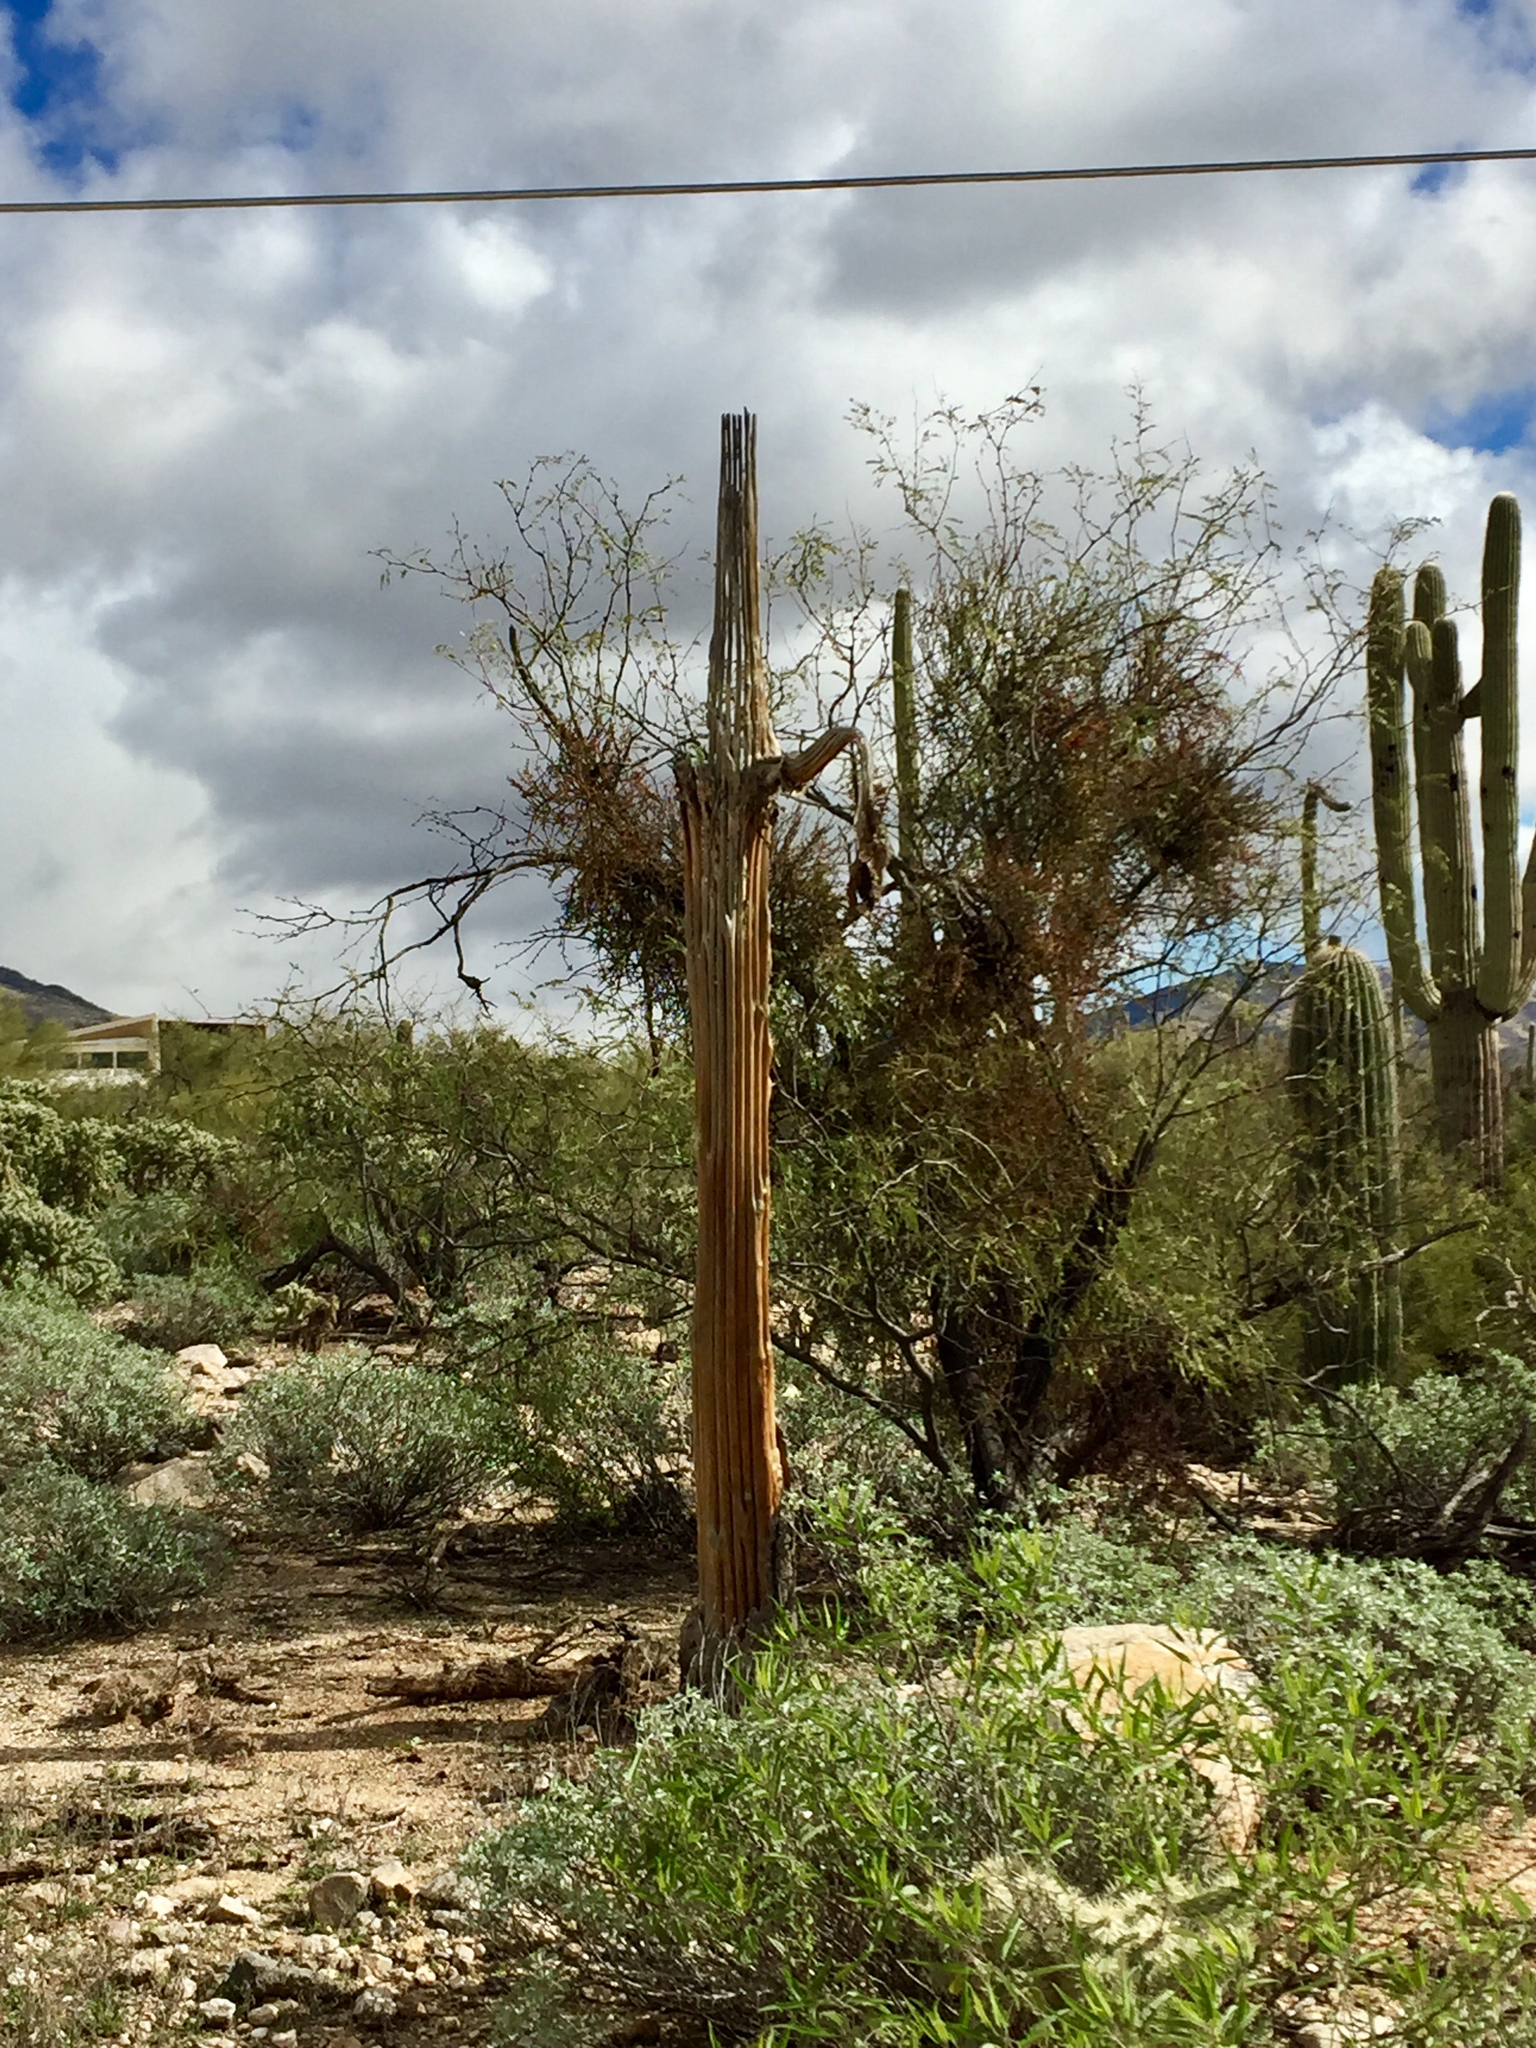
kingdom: Plantae
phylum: Tracheophyta
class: Magnoliopsida
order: Caryophyllales
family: Cactaceae
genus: Carnegiea
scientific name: Carnegiea gigantea
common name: Saguaro
